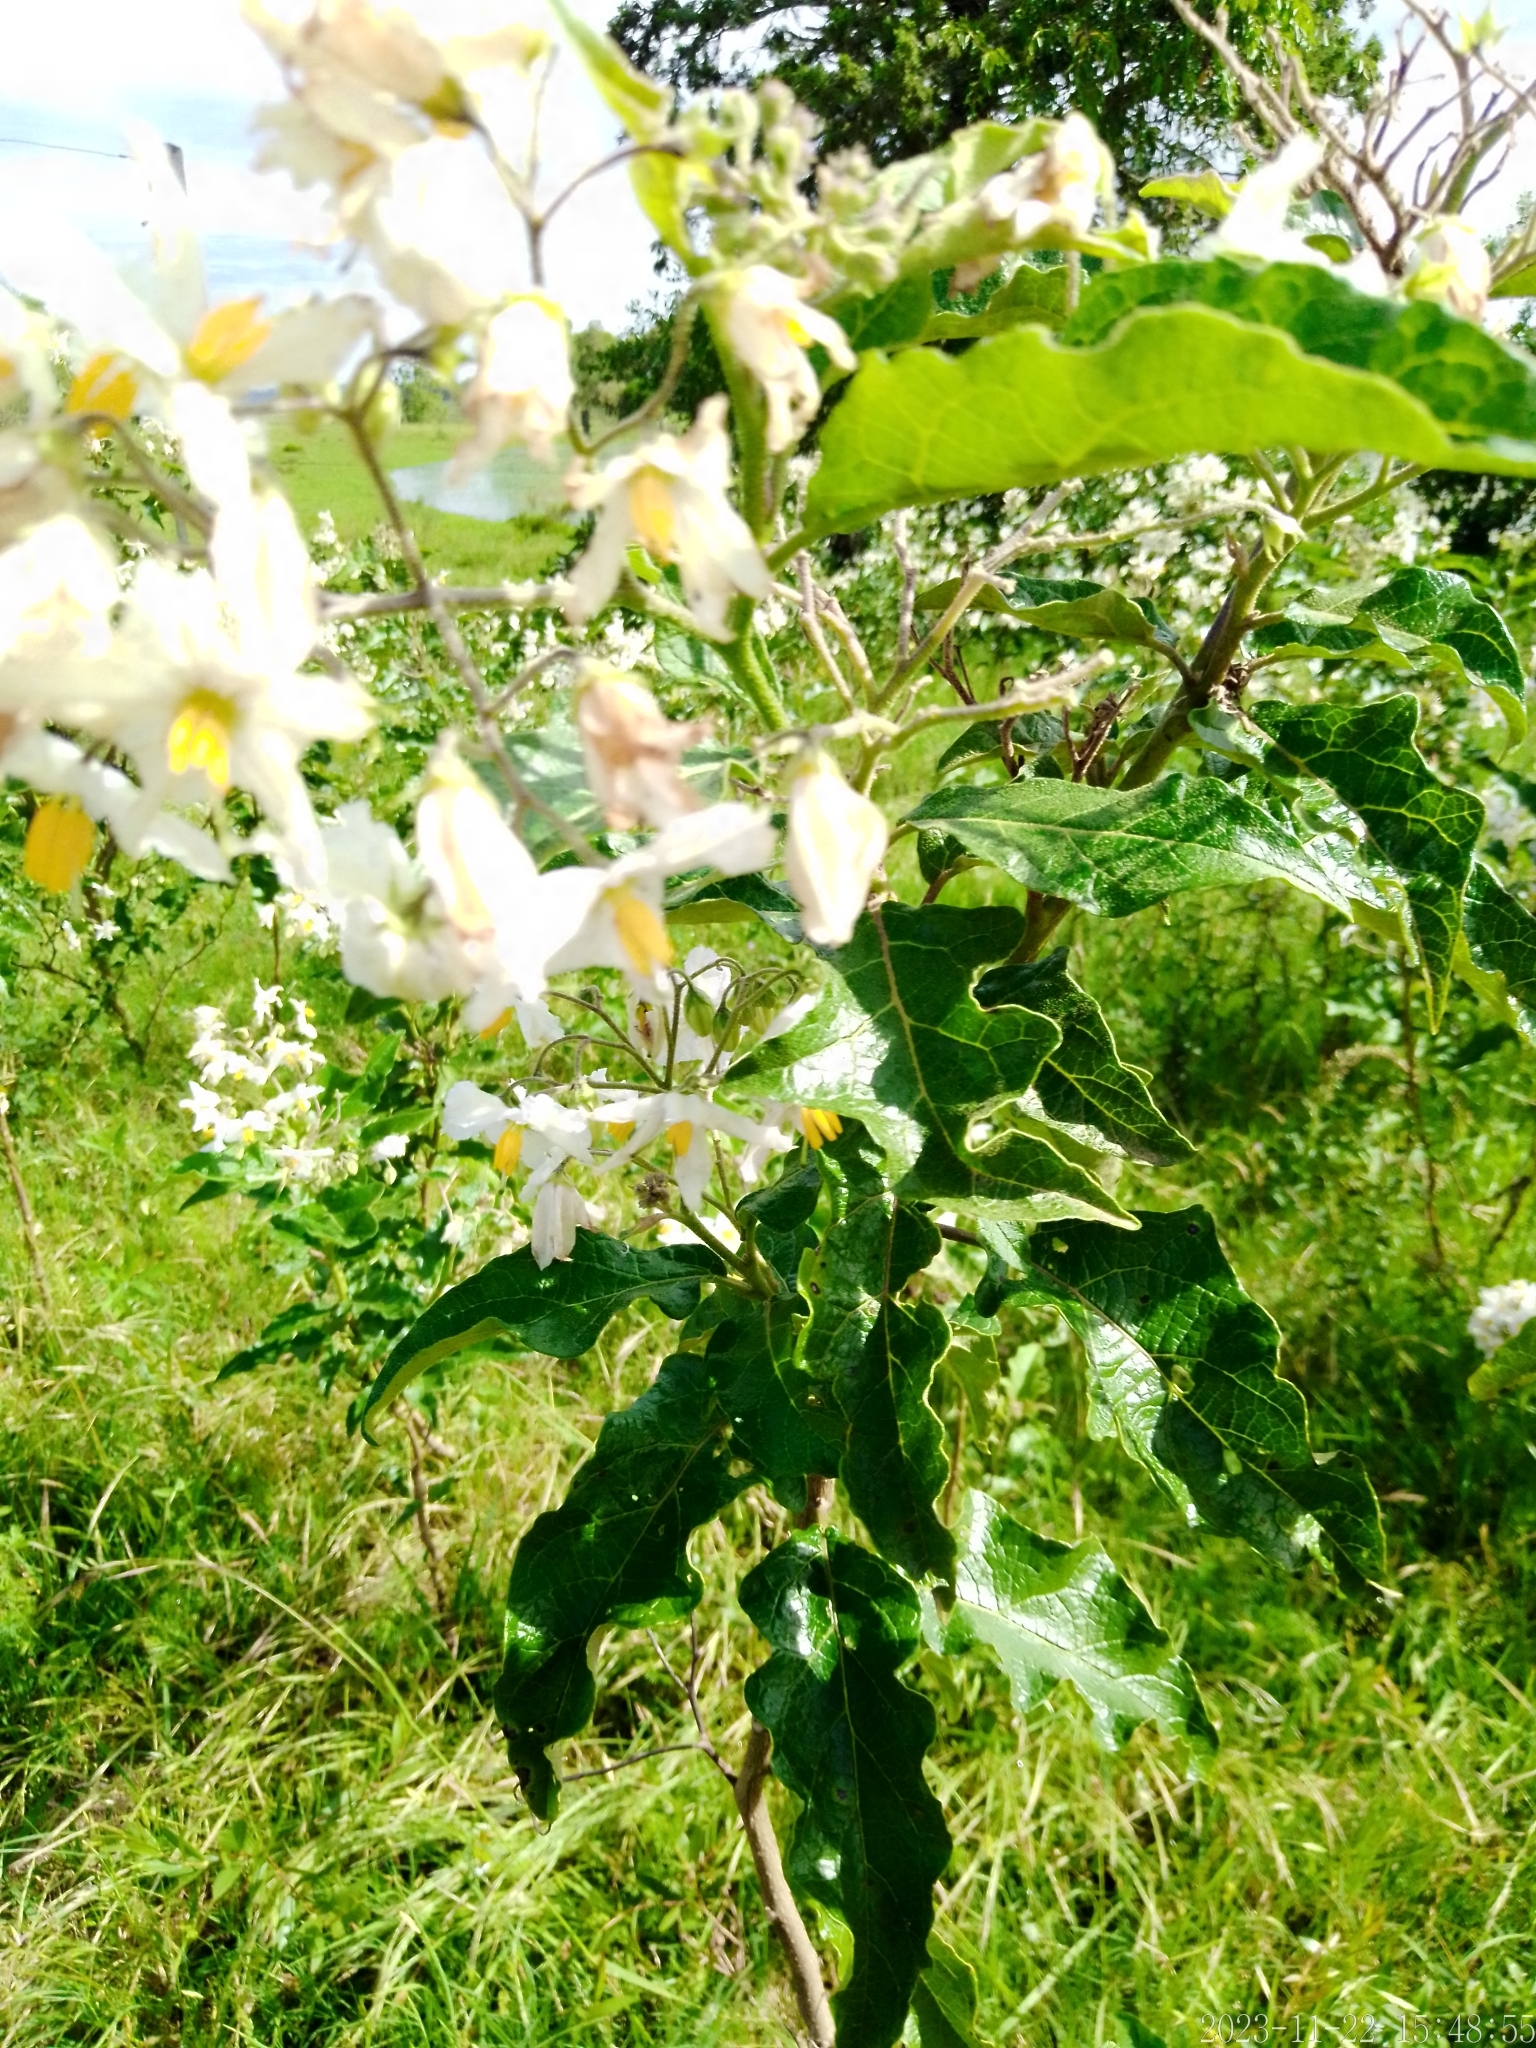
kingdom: Plantae
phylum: Tracheophyta
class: Magnoliopsida
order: Solanales
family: Solanaceae
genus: Solanum
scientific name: Solanum bonariense
